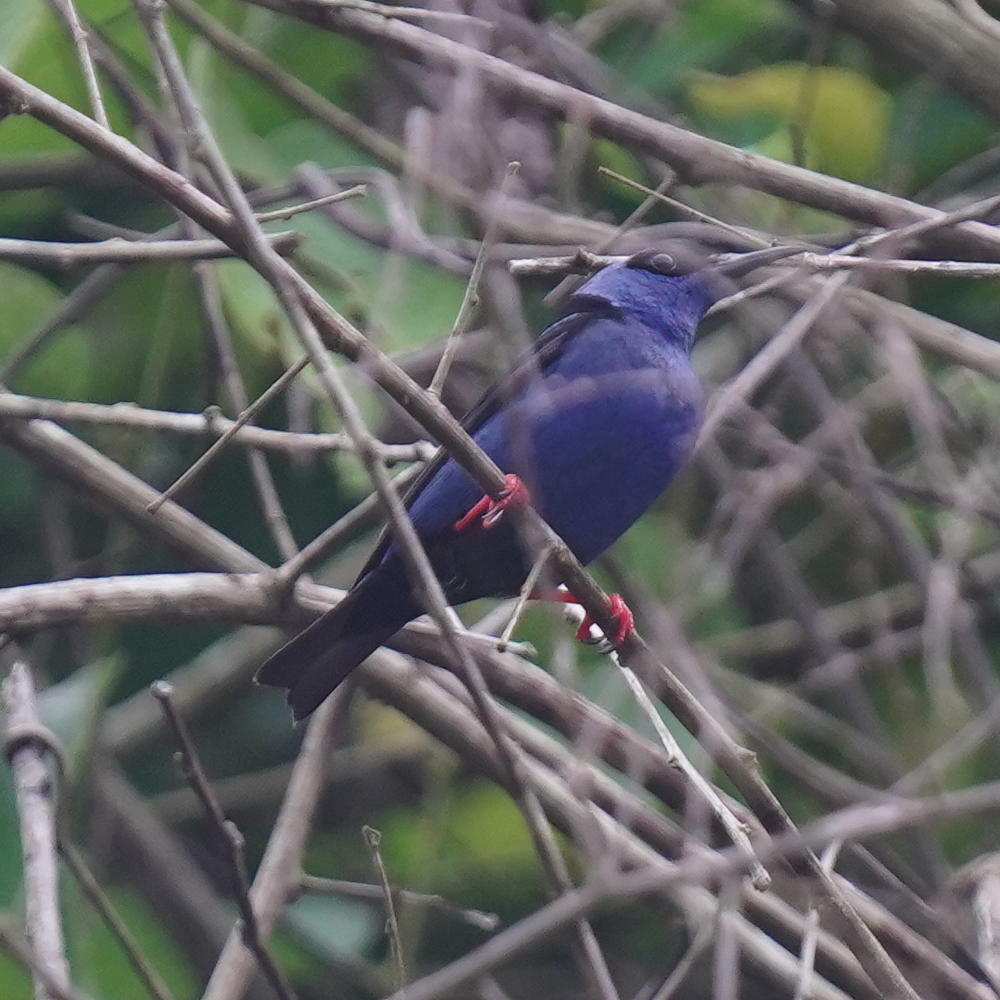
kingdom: Animalia
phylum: Chordata
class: Aves
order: Passeriformes
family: Thraupidae
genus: Cyanerpes
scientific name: Cyanerpes cyaneus
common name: Red-legged honeycreeper
